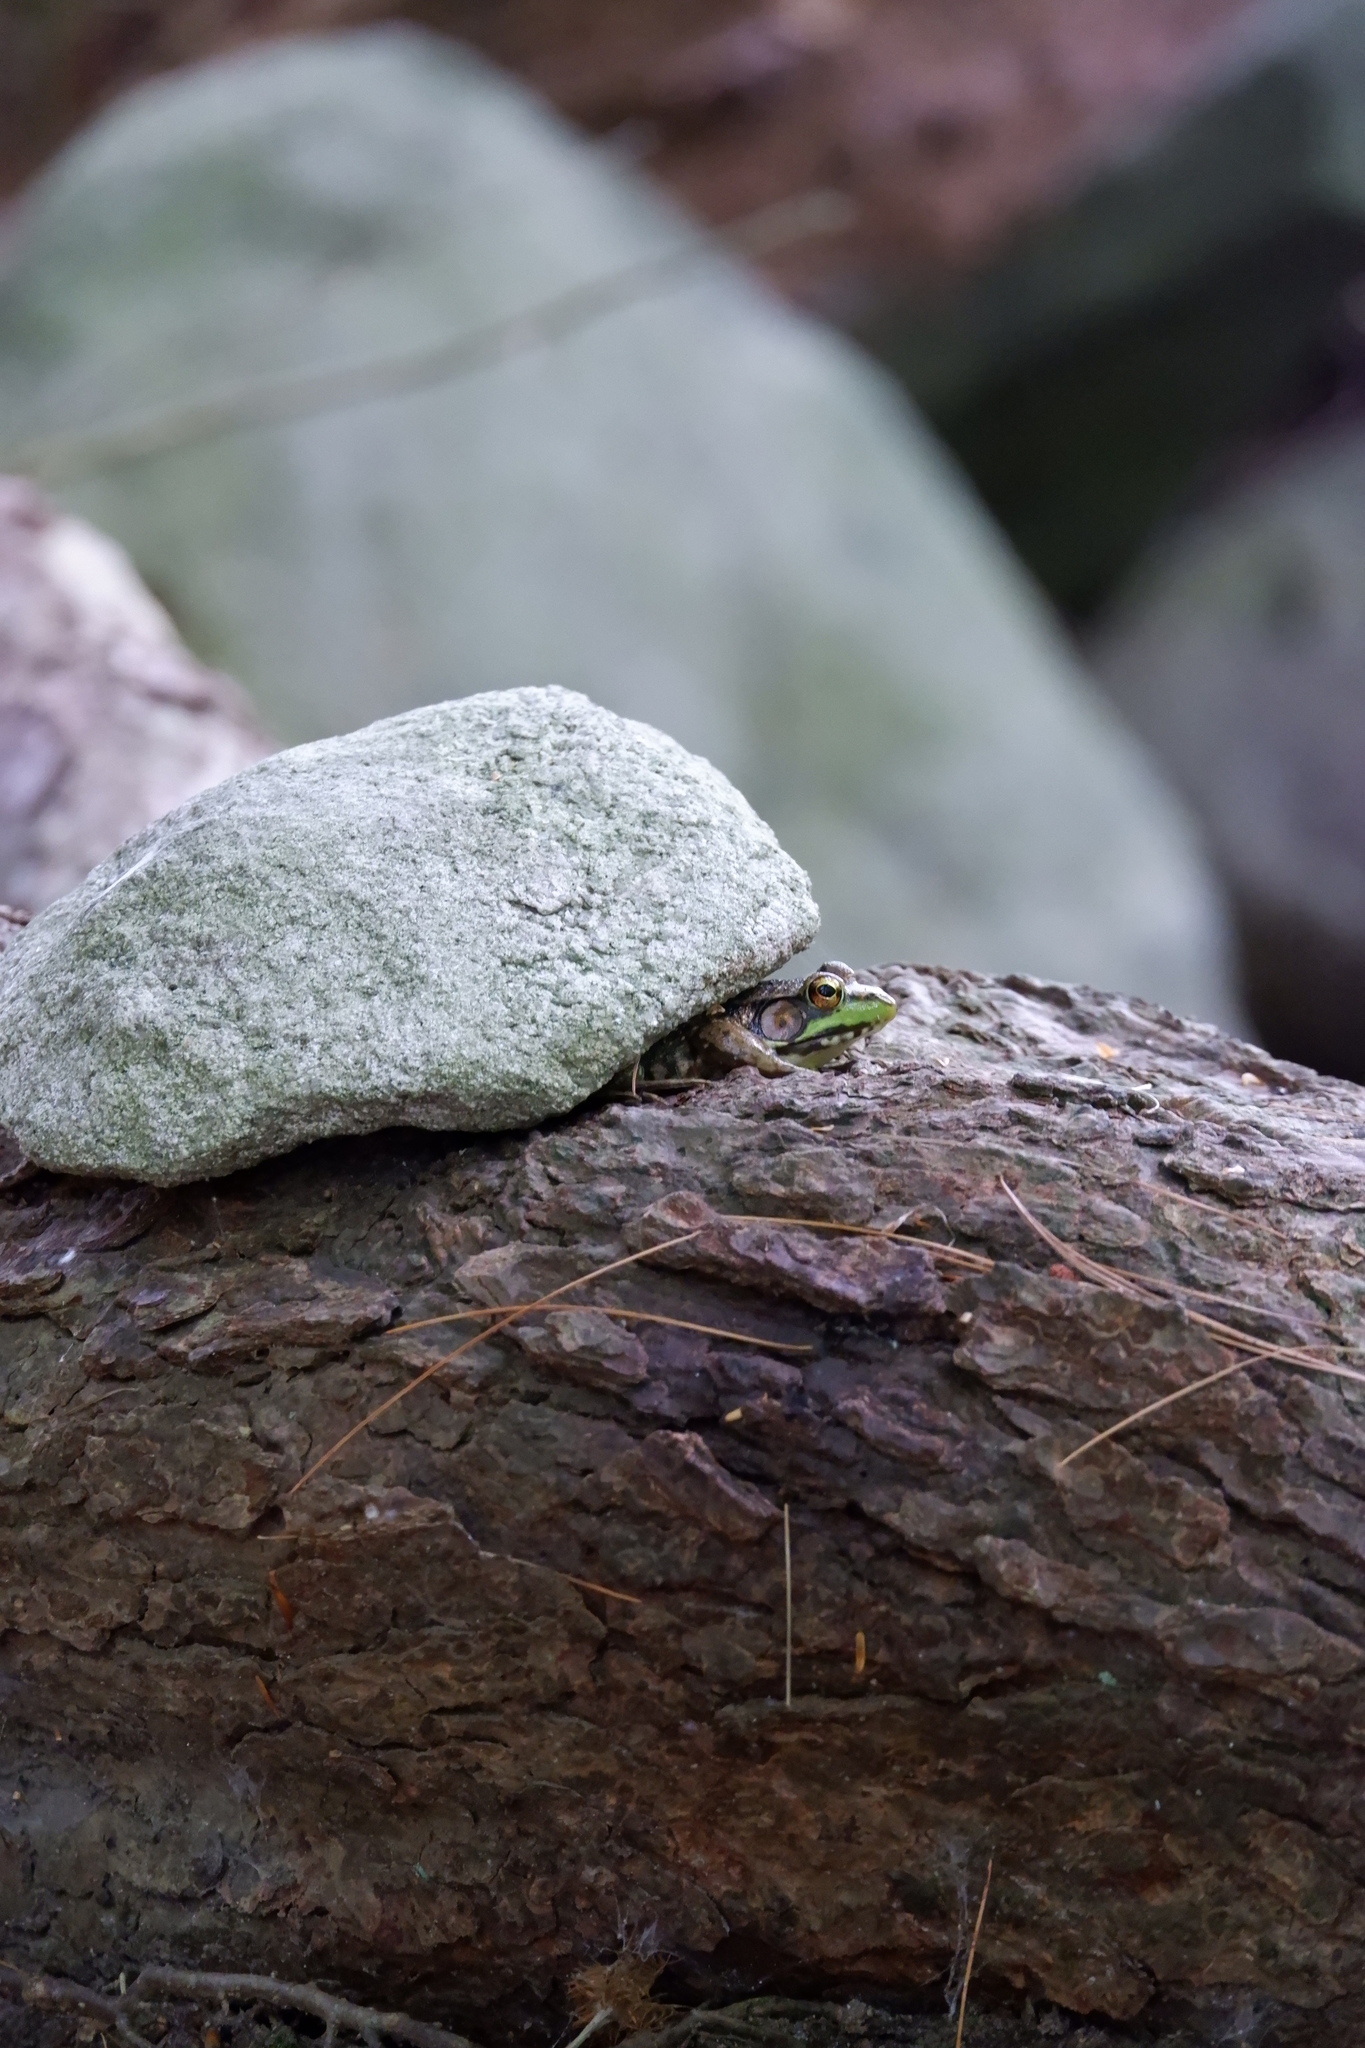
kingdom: Animalia
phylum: Chordata
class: Amphibia
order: Anura
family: Ranidae
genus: Lithobates
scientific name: Lithobates clamitans
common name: Green frog
